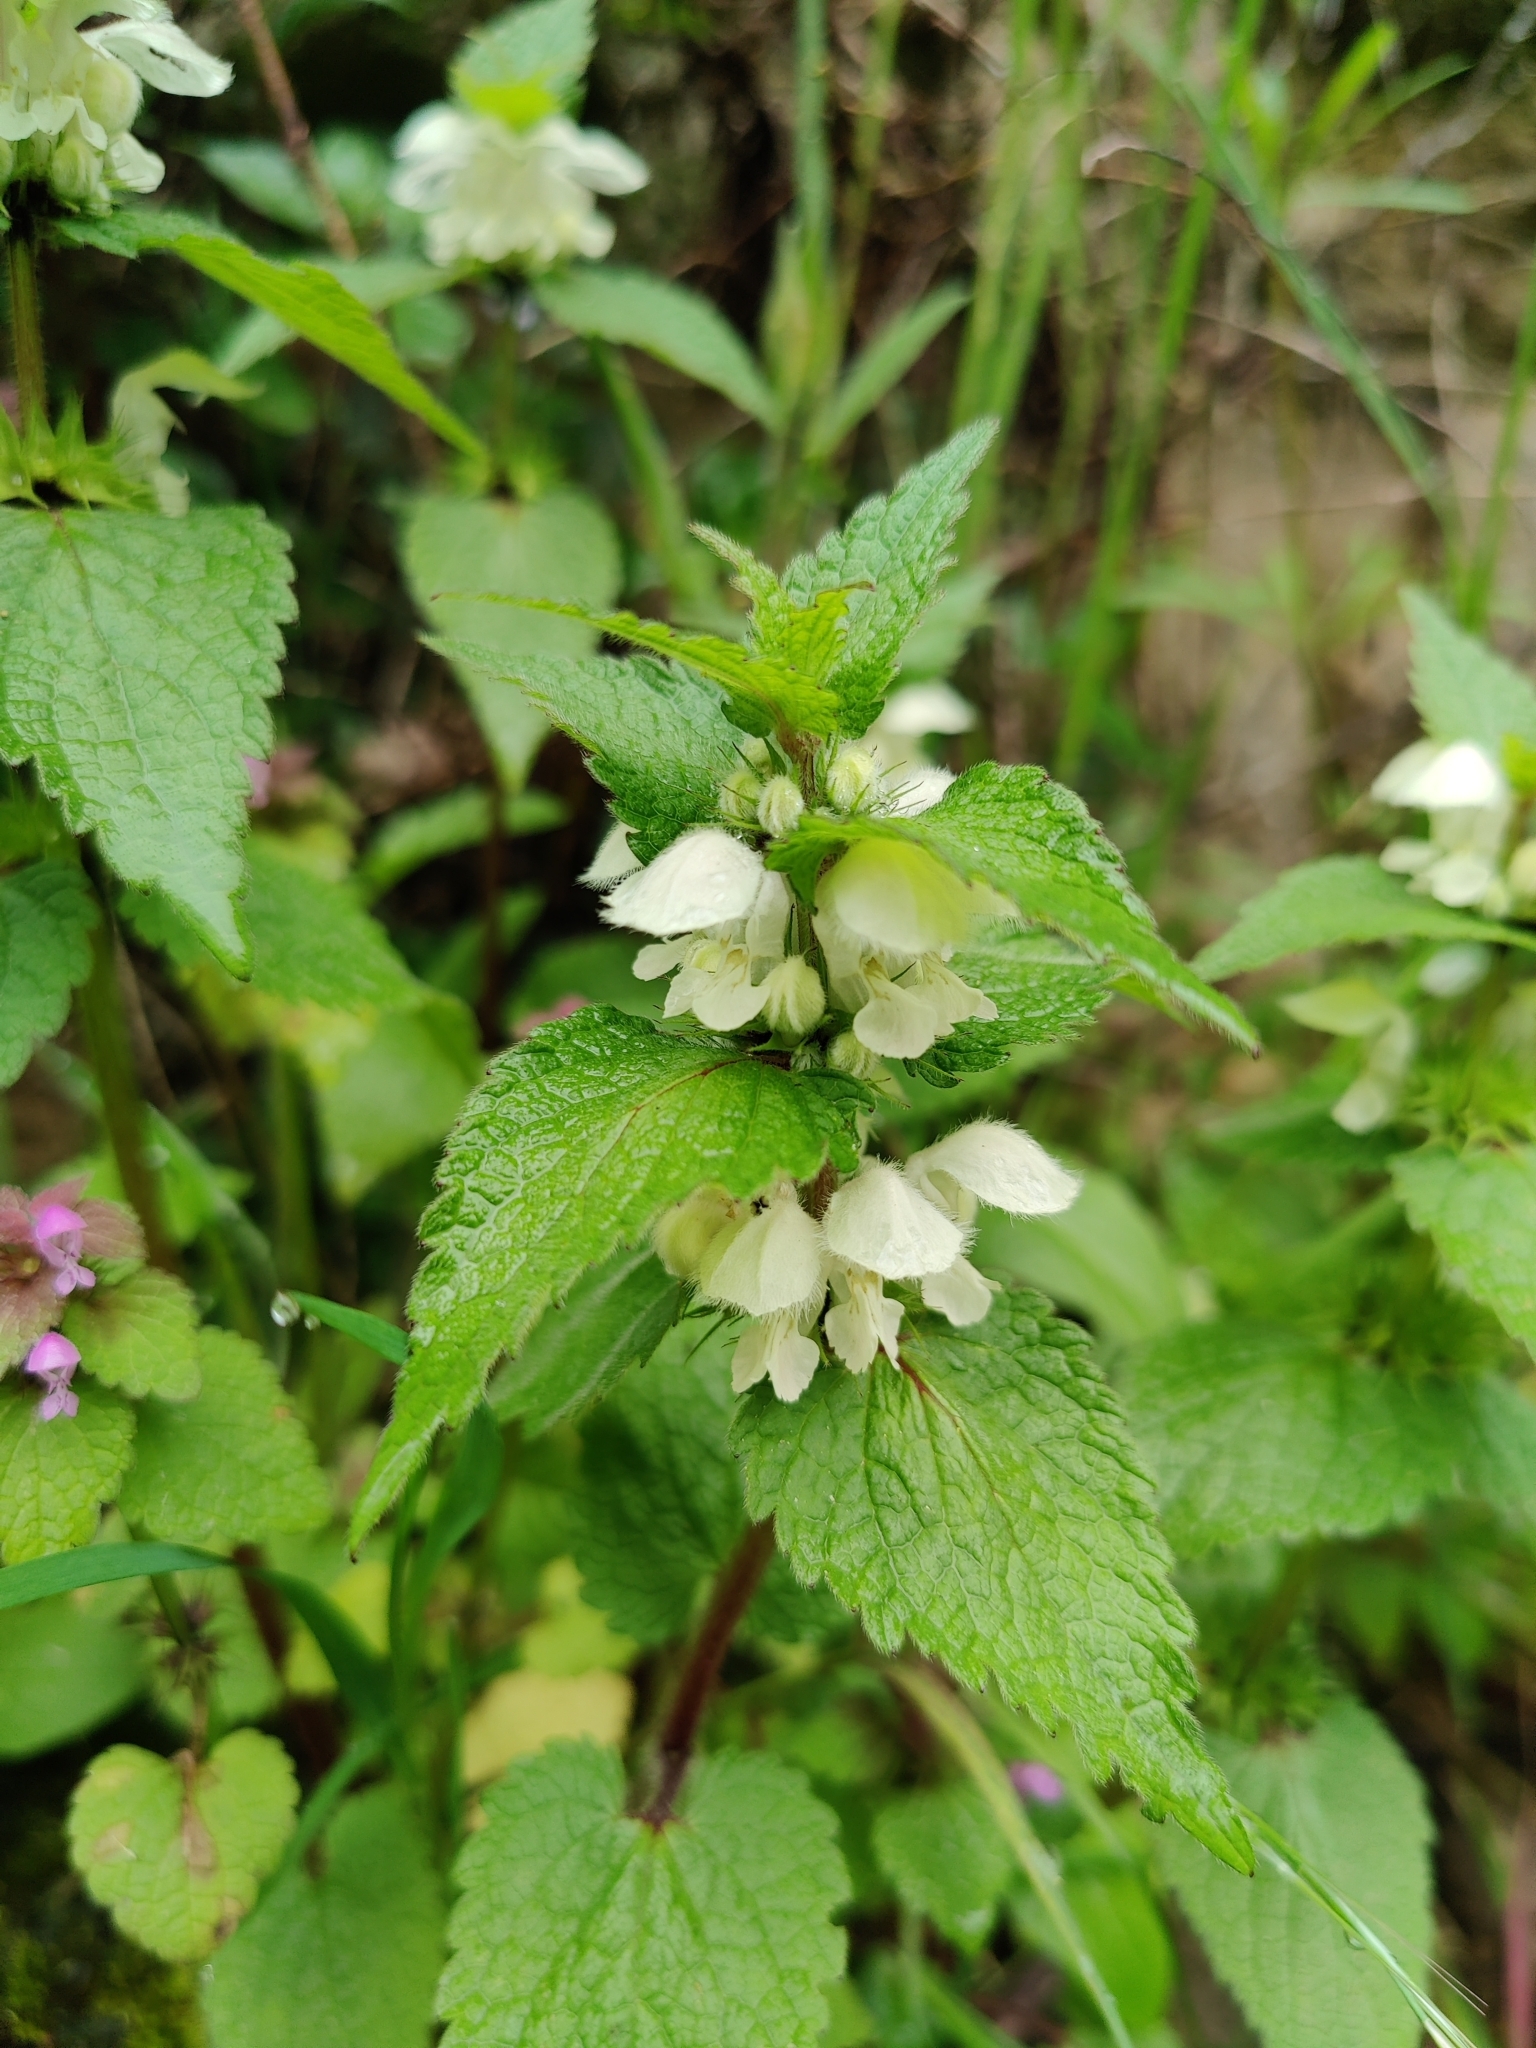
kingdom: Plantae
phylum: Tracheophyta
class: Magnoliopsida
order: Lamiales
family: Lamiaceae
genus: Lamium
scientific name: Lamium album
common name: White dead-nettle
